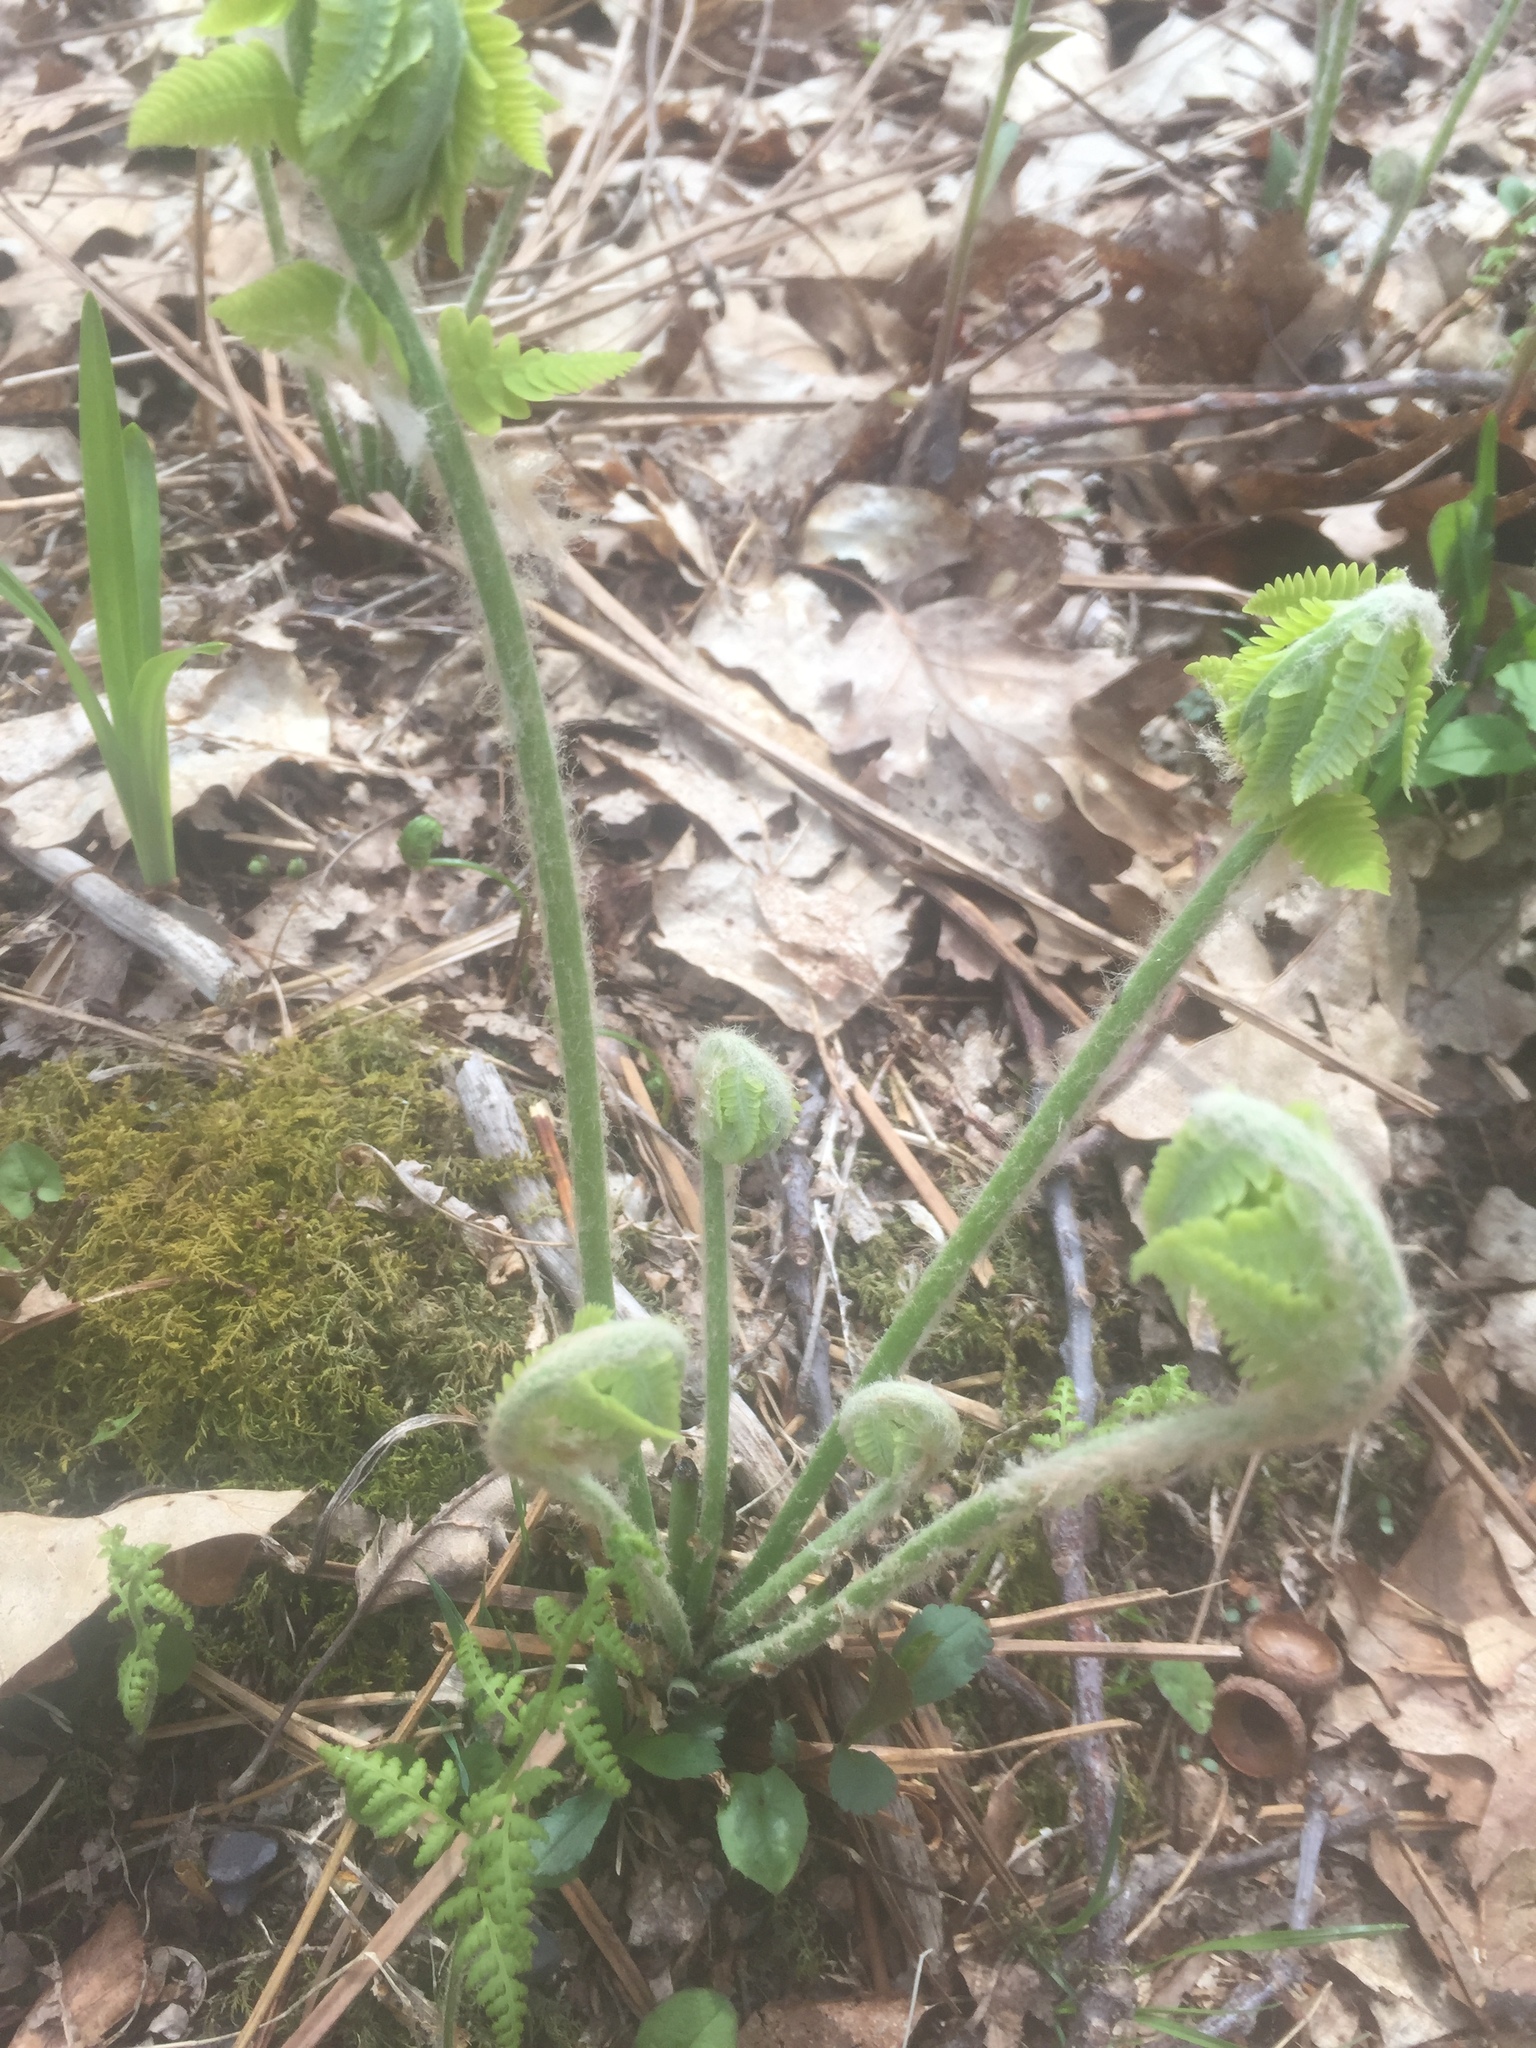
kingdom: Plantae
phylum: Tracheophyta
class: Polypodiopsida
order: Osmundales
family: Osmundaceae
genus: Claytosmunda
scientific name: Claytosmunda claytoniana
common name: Clayton's fern
